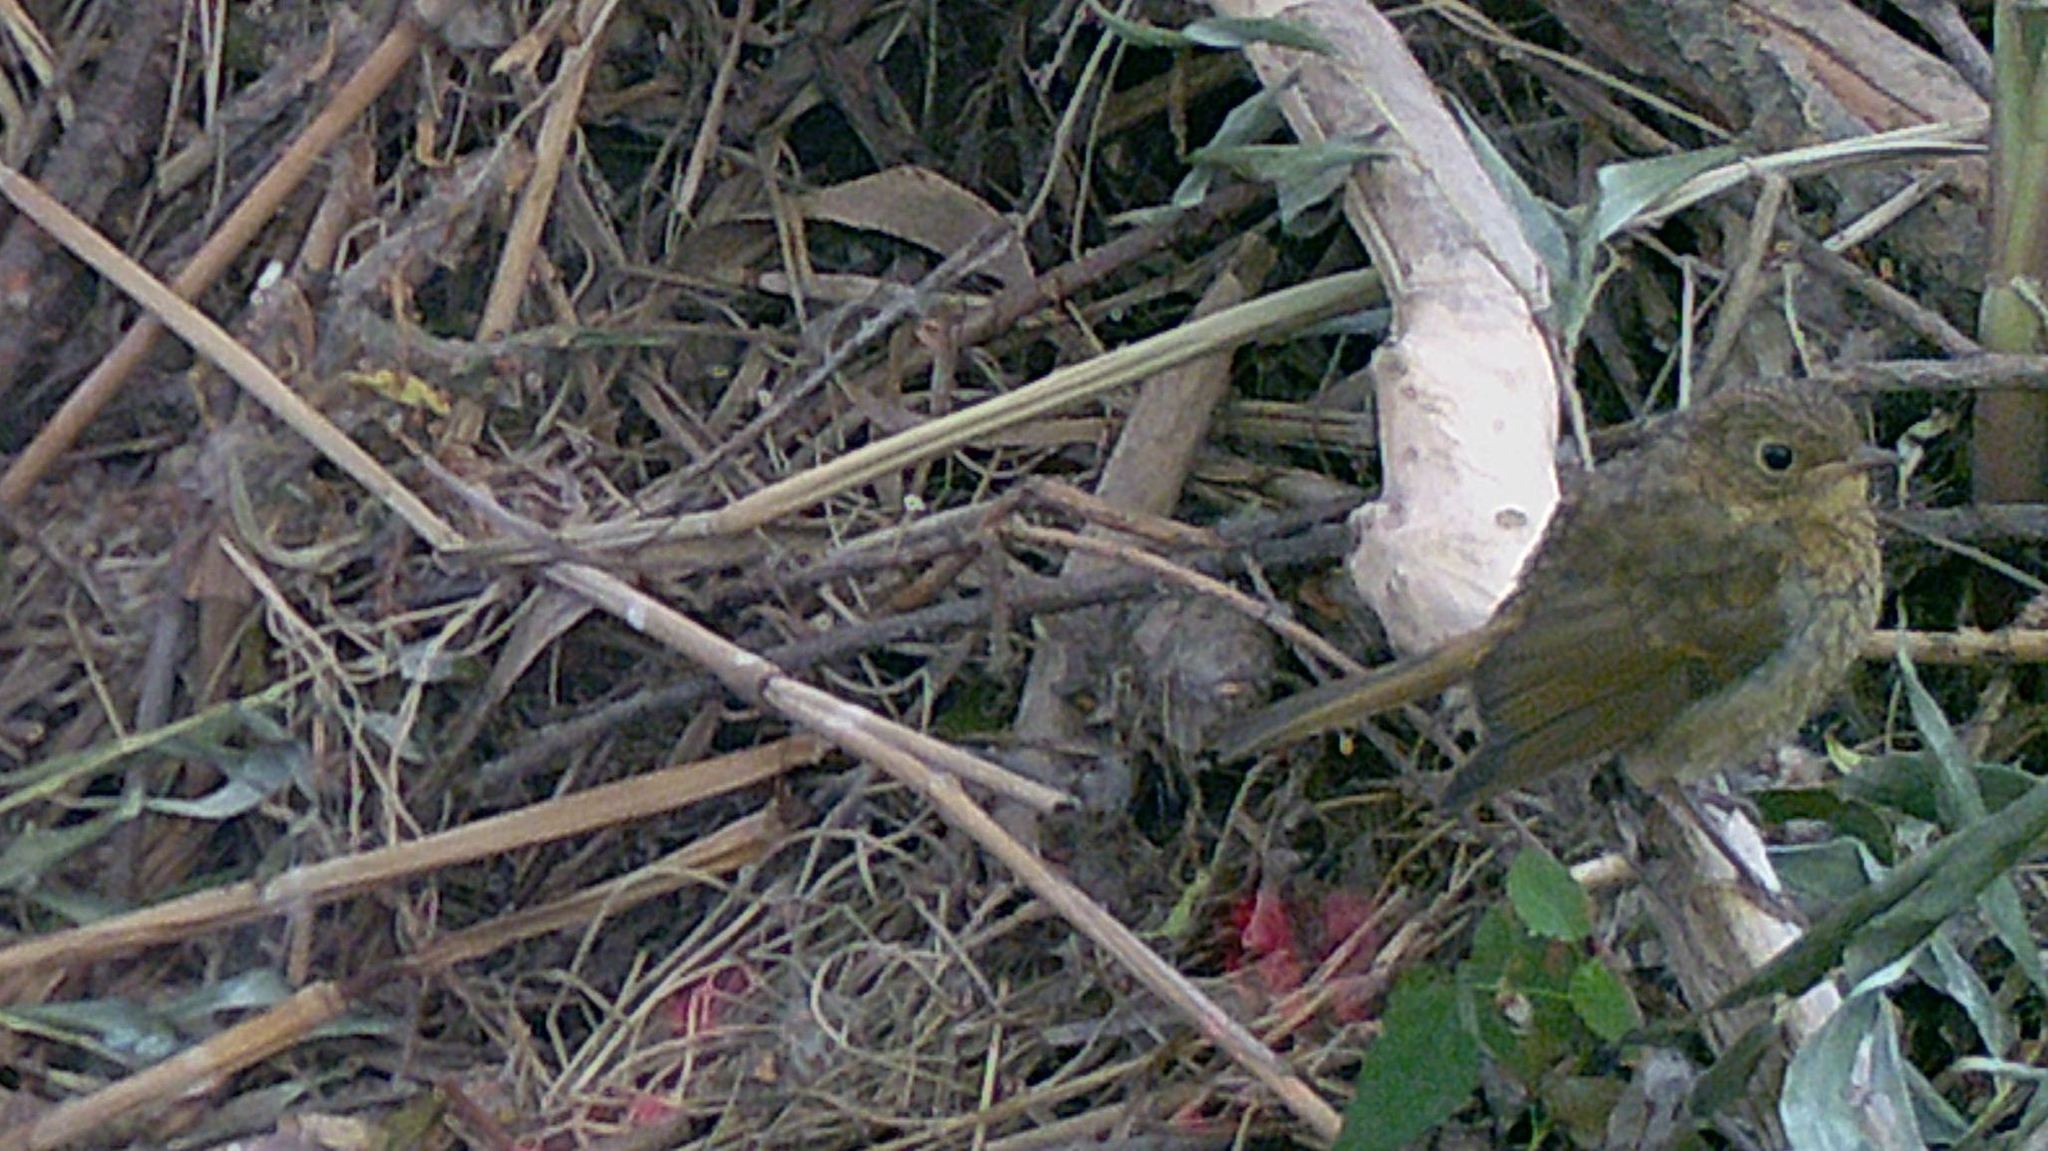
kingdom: Animalia
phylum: Chordata
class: Aves
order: Passeriformes
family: Muscicapidae
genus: Erithacus
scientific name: Erithacus rubecula
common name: European robin
